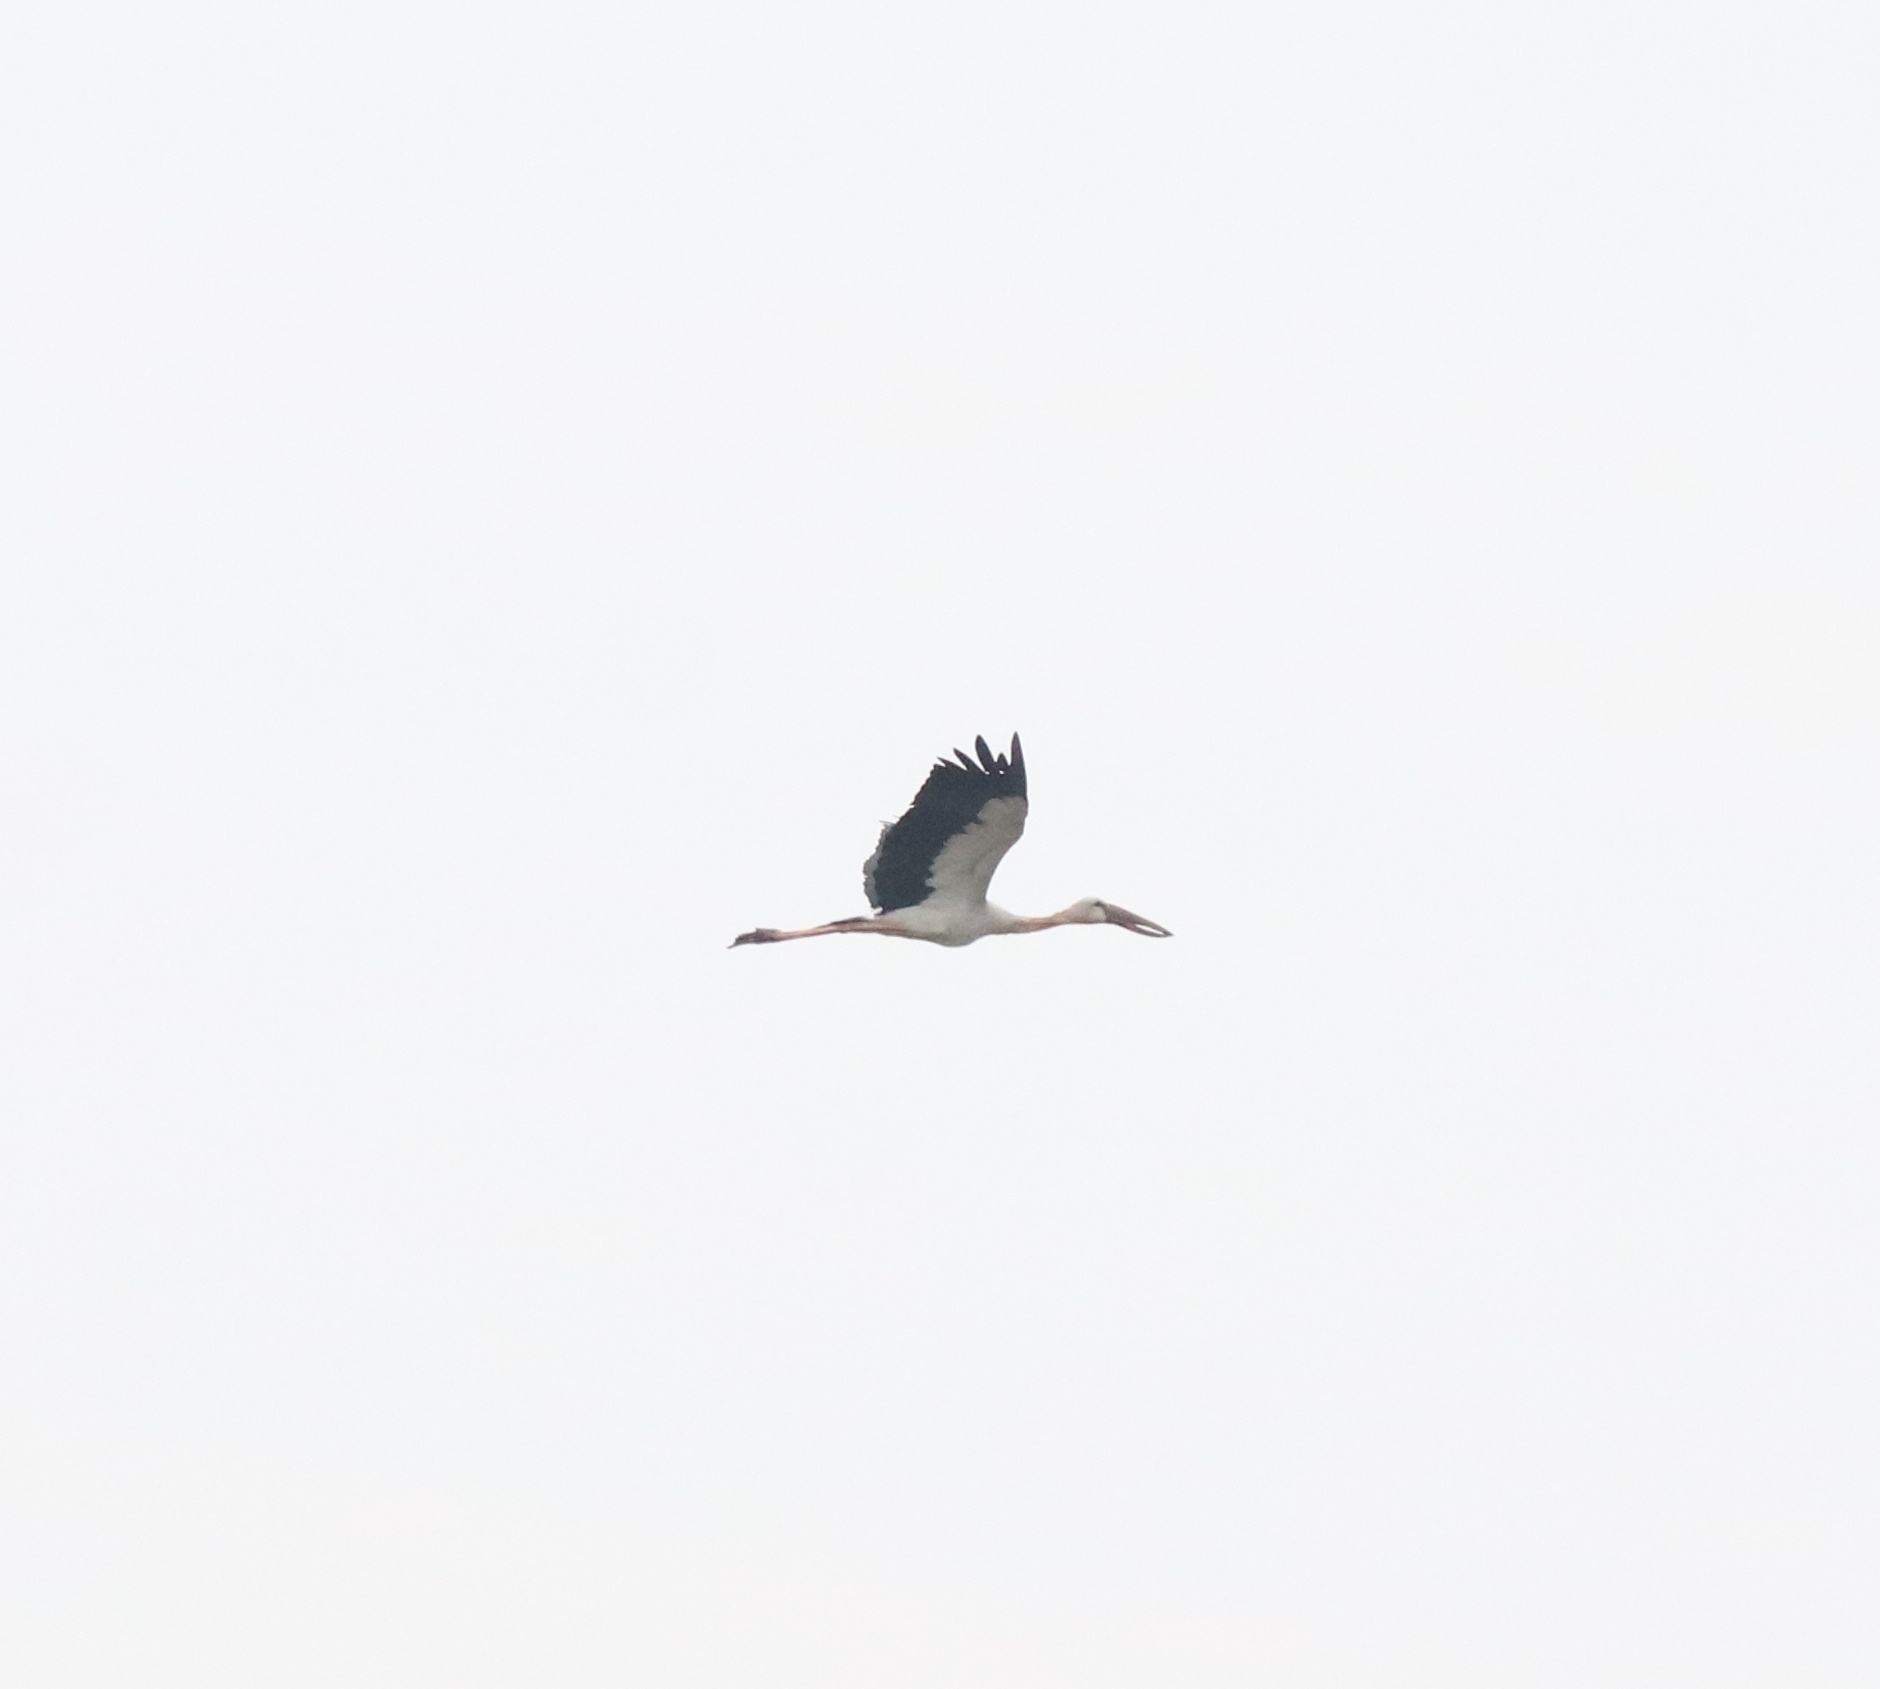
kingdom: Animalia
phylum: Chordata
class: Aves
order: Ciconiiformes
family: Ciconiidae
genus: Anastomus
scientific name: Anastomus oscitans
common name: Asian openbill
